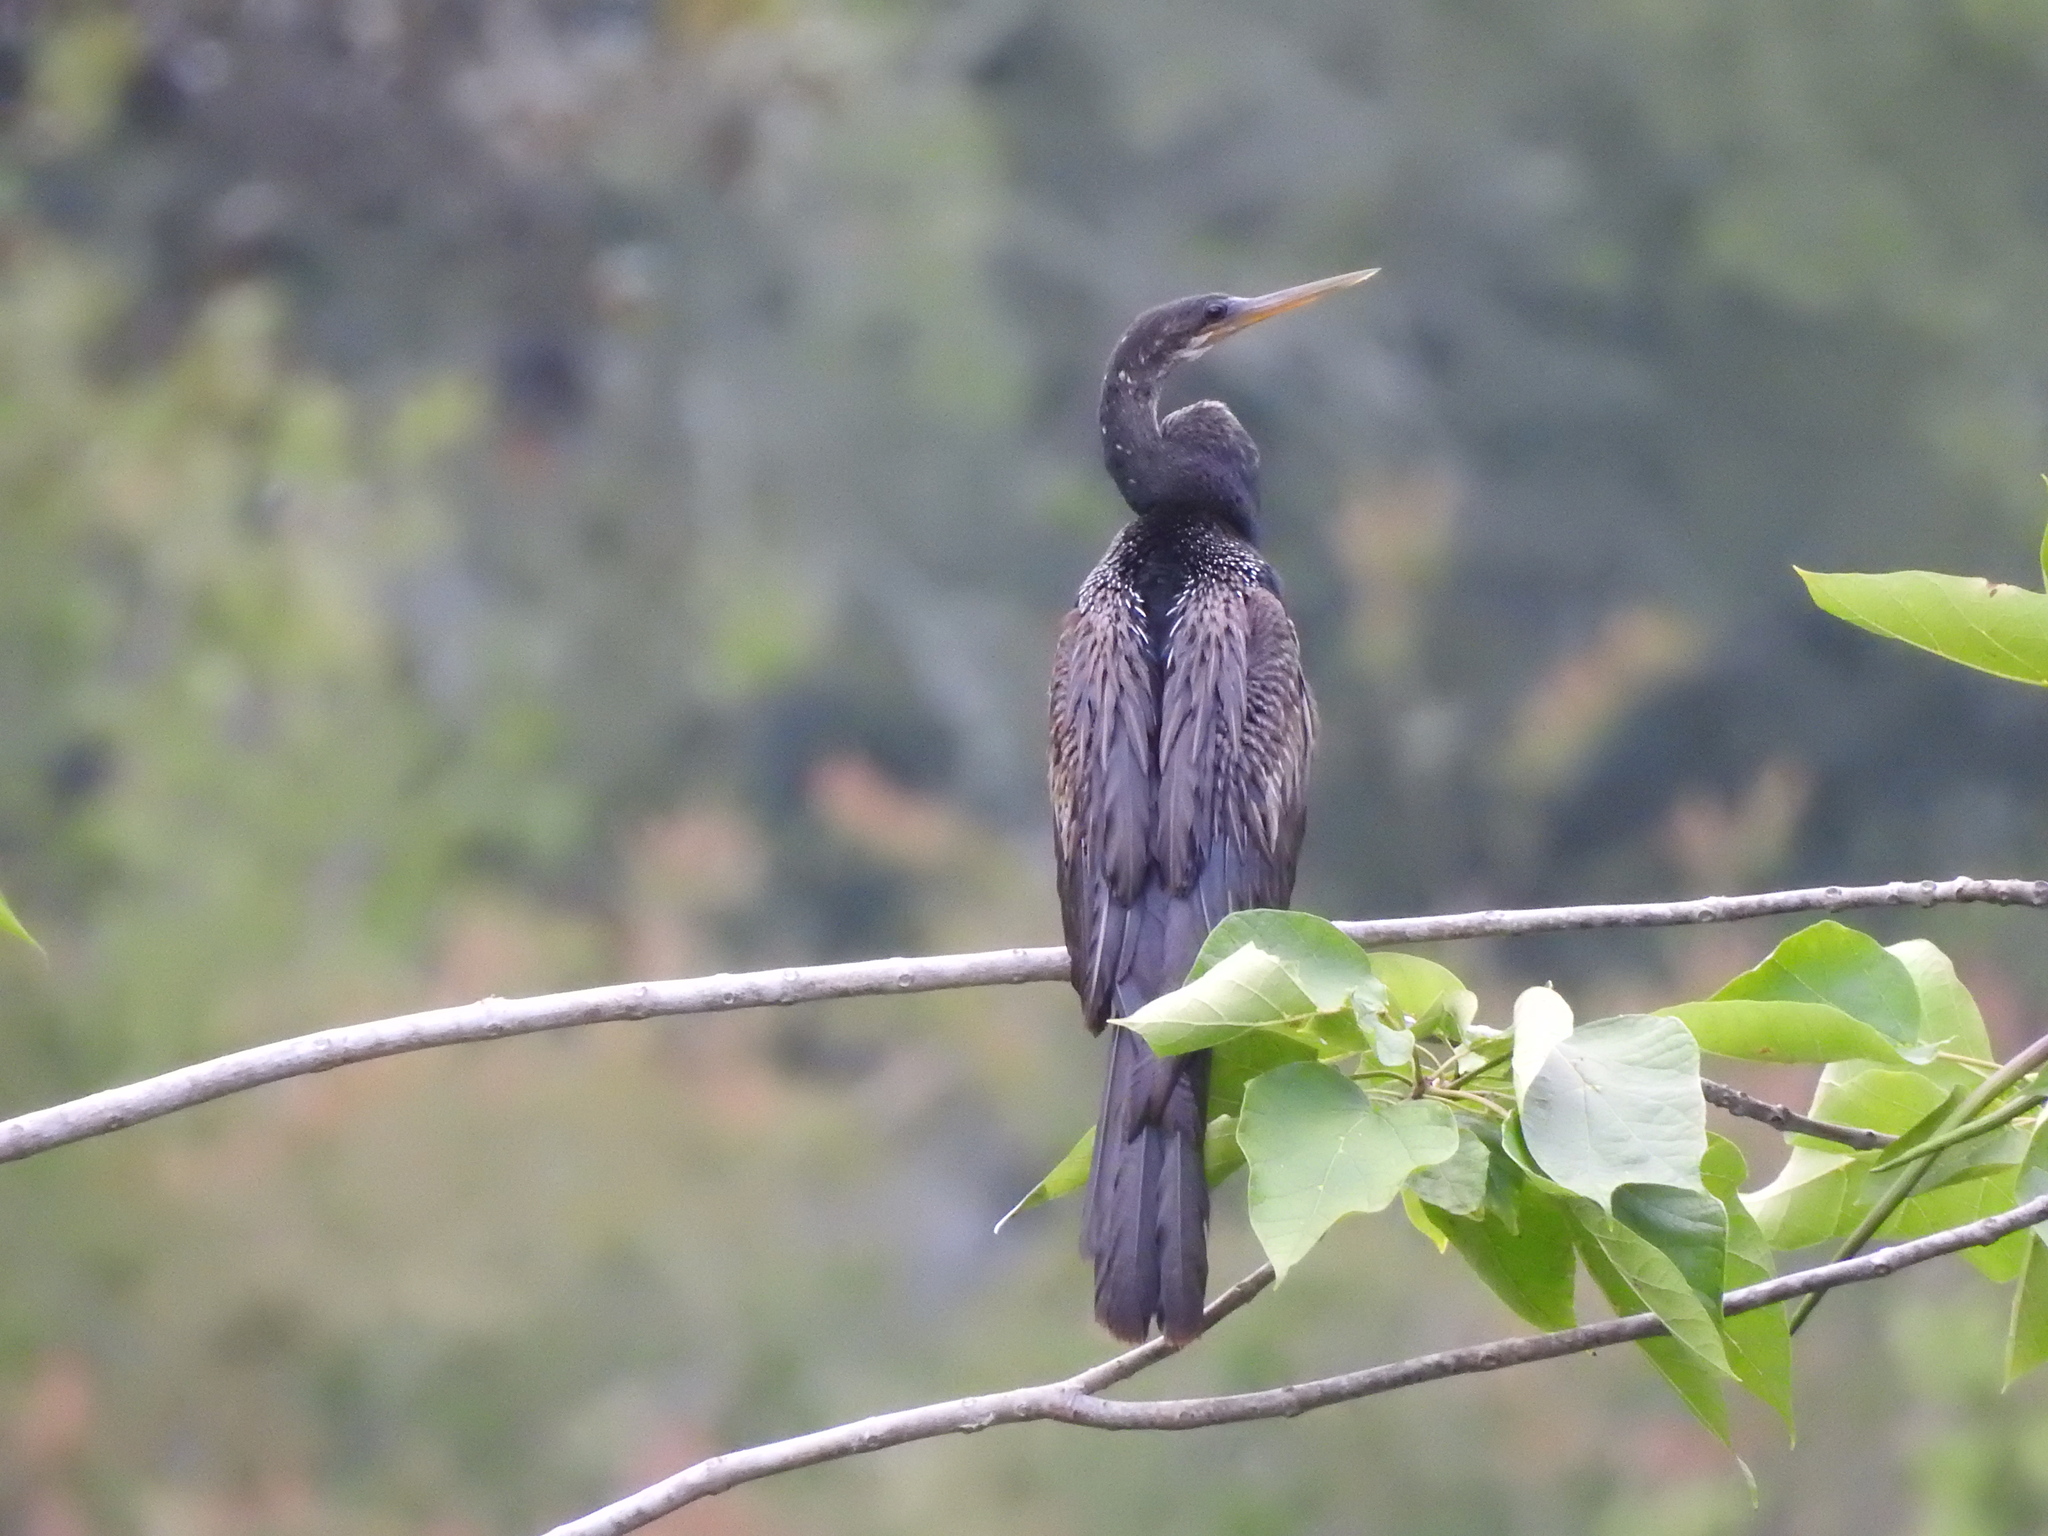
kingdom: Animalia
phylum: Chordata
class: Aves
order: Suliformes
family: Anhingidae
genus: Anhinga
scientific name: Anhinga anhinga
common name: Anhinga
